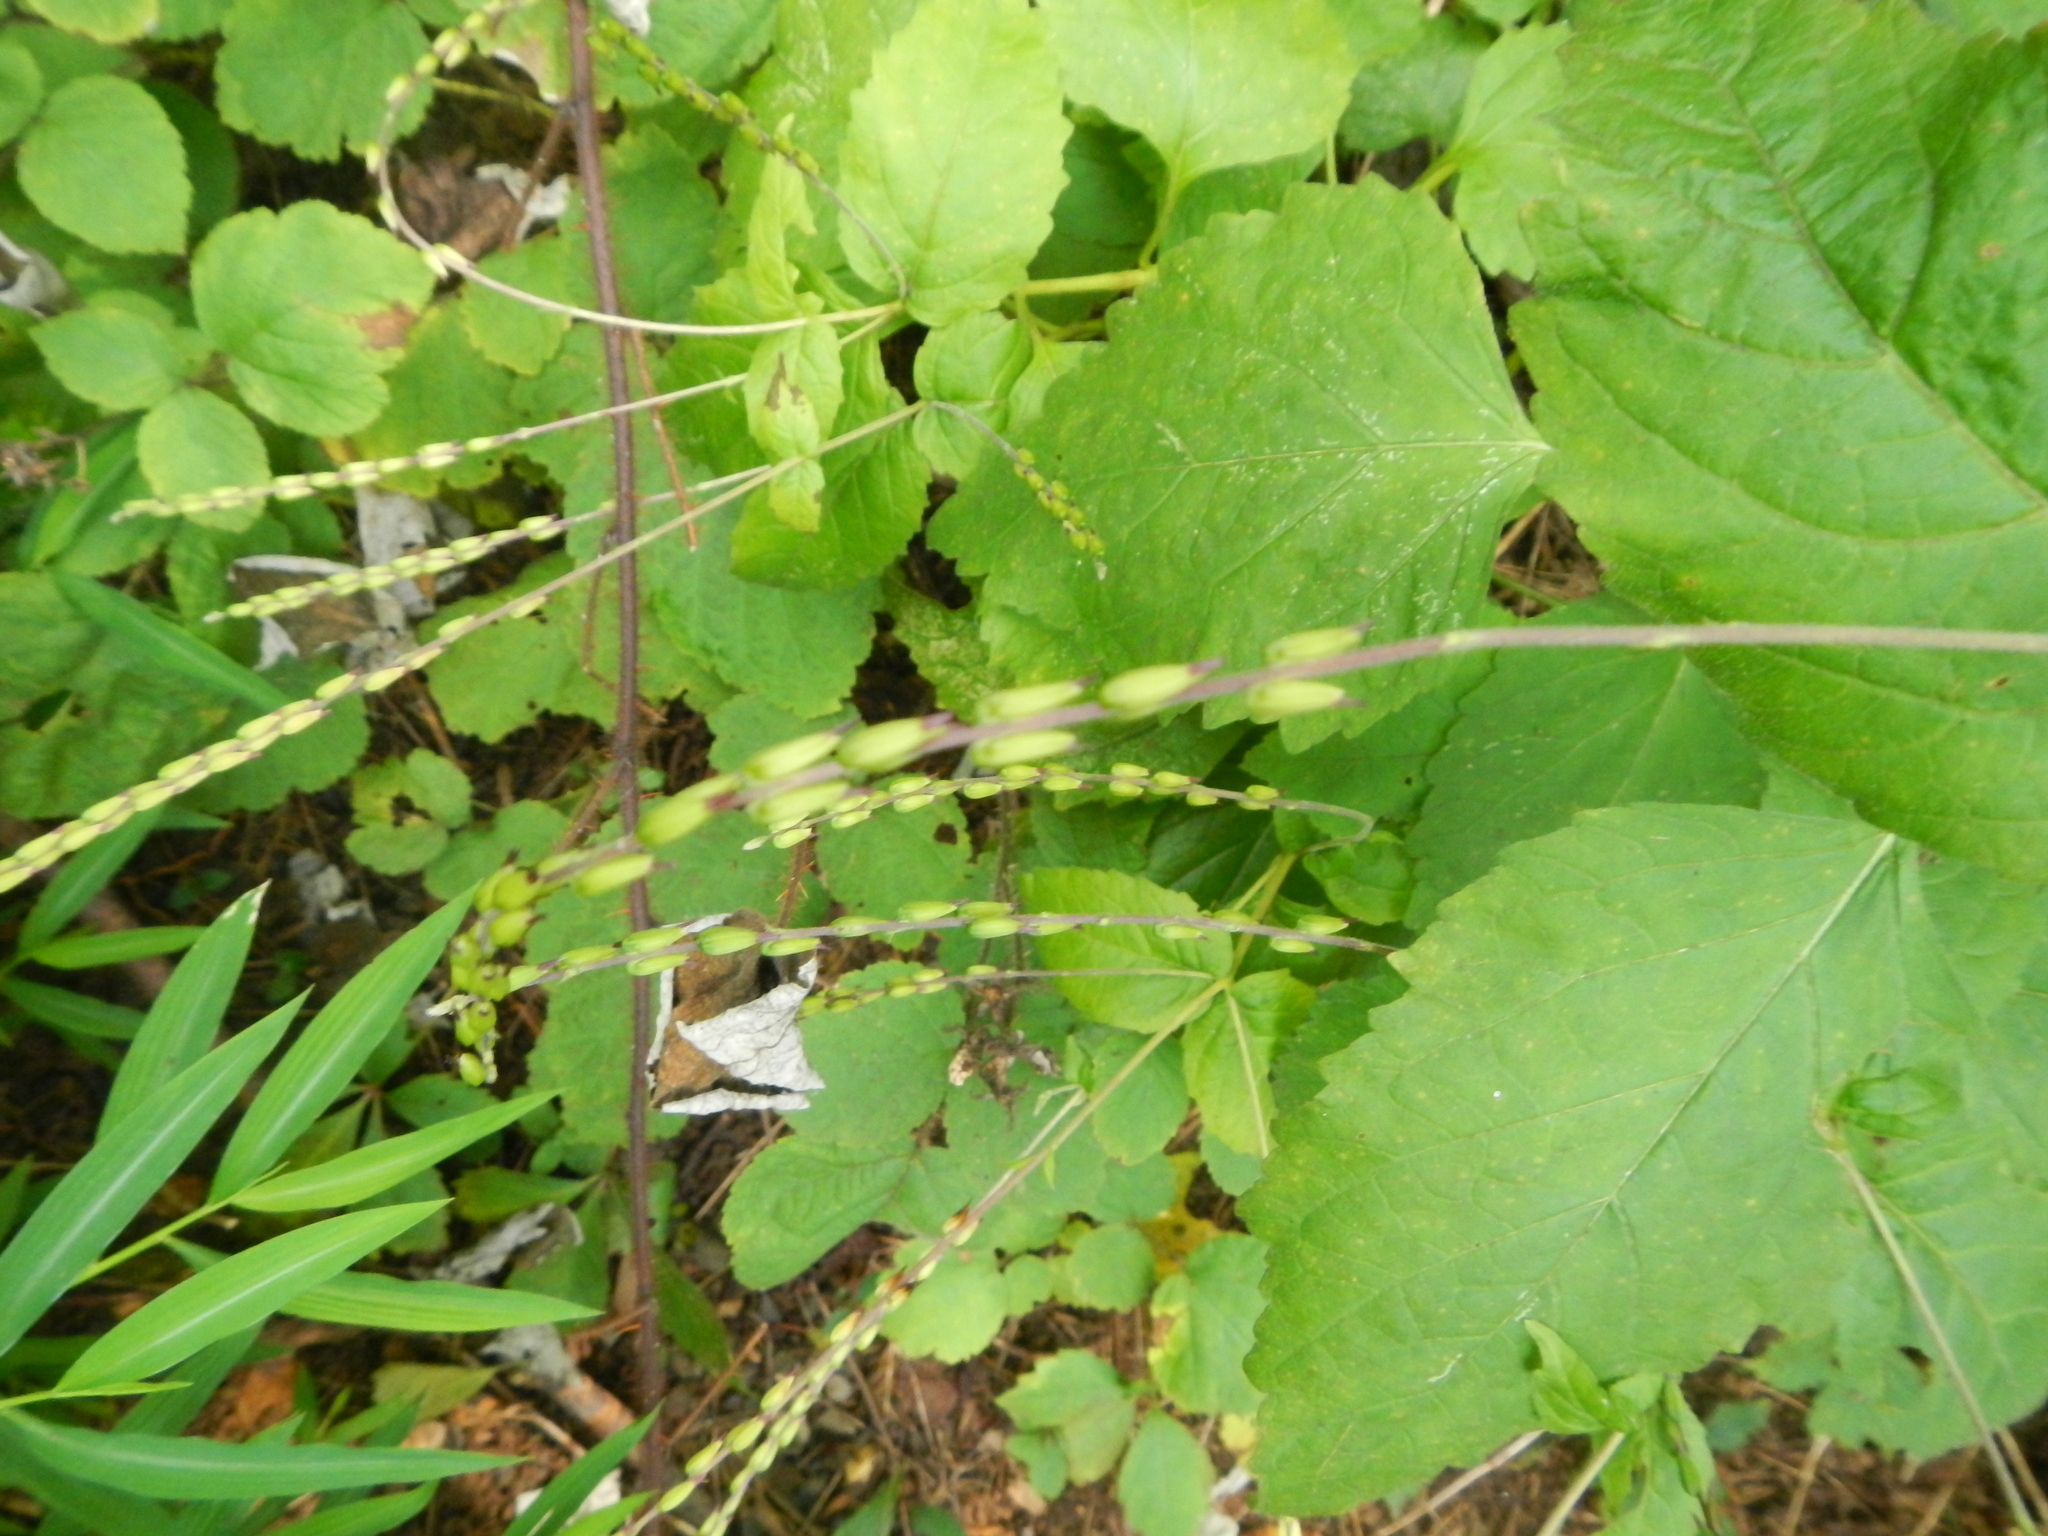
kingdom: Plantae
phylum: Tracheophyta
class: Magnoliopsida
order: Lamiales
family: Phrymaceae
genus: Phryma
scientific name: Phryma leptostachya
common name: American lopseed
